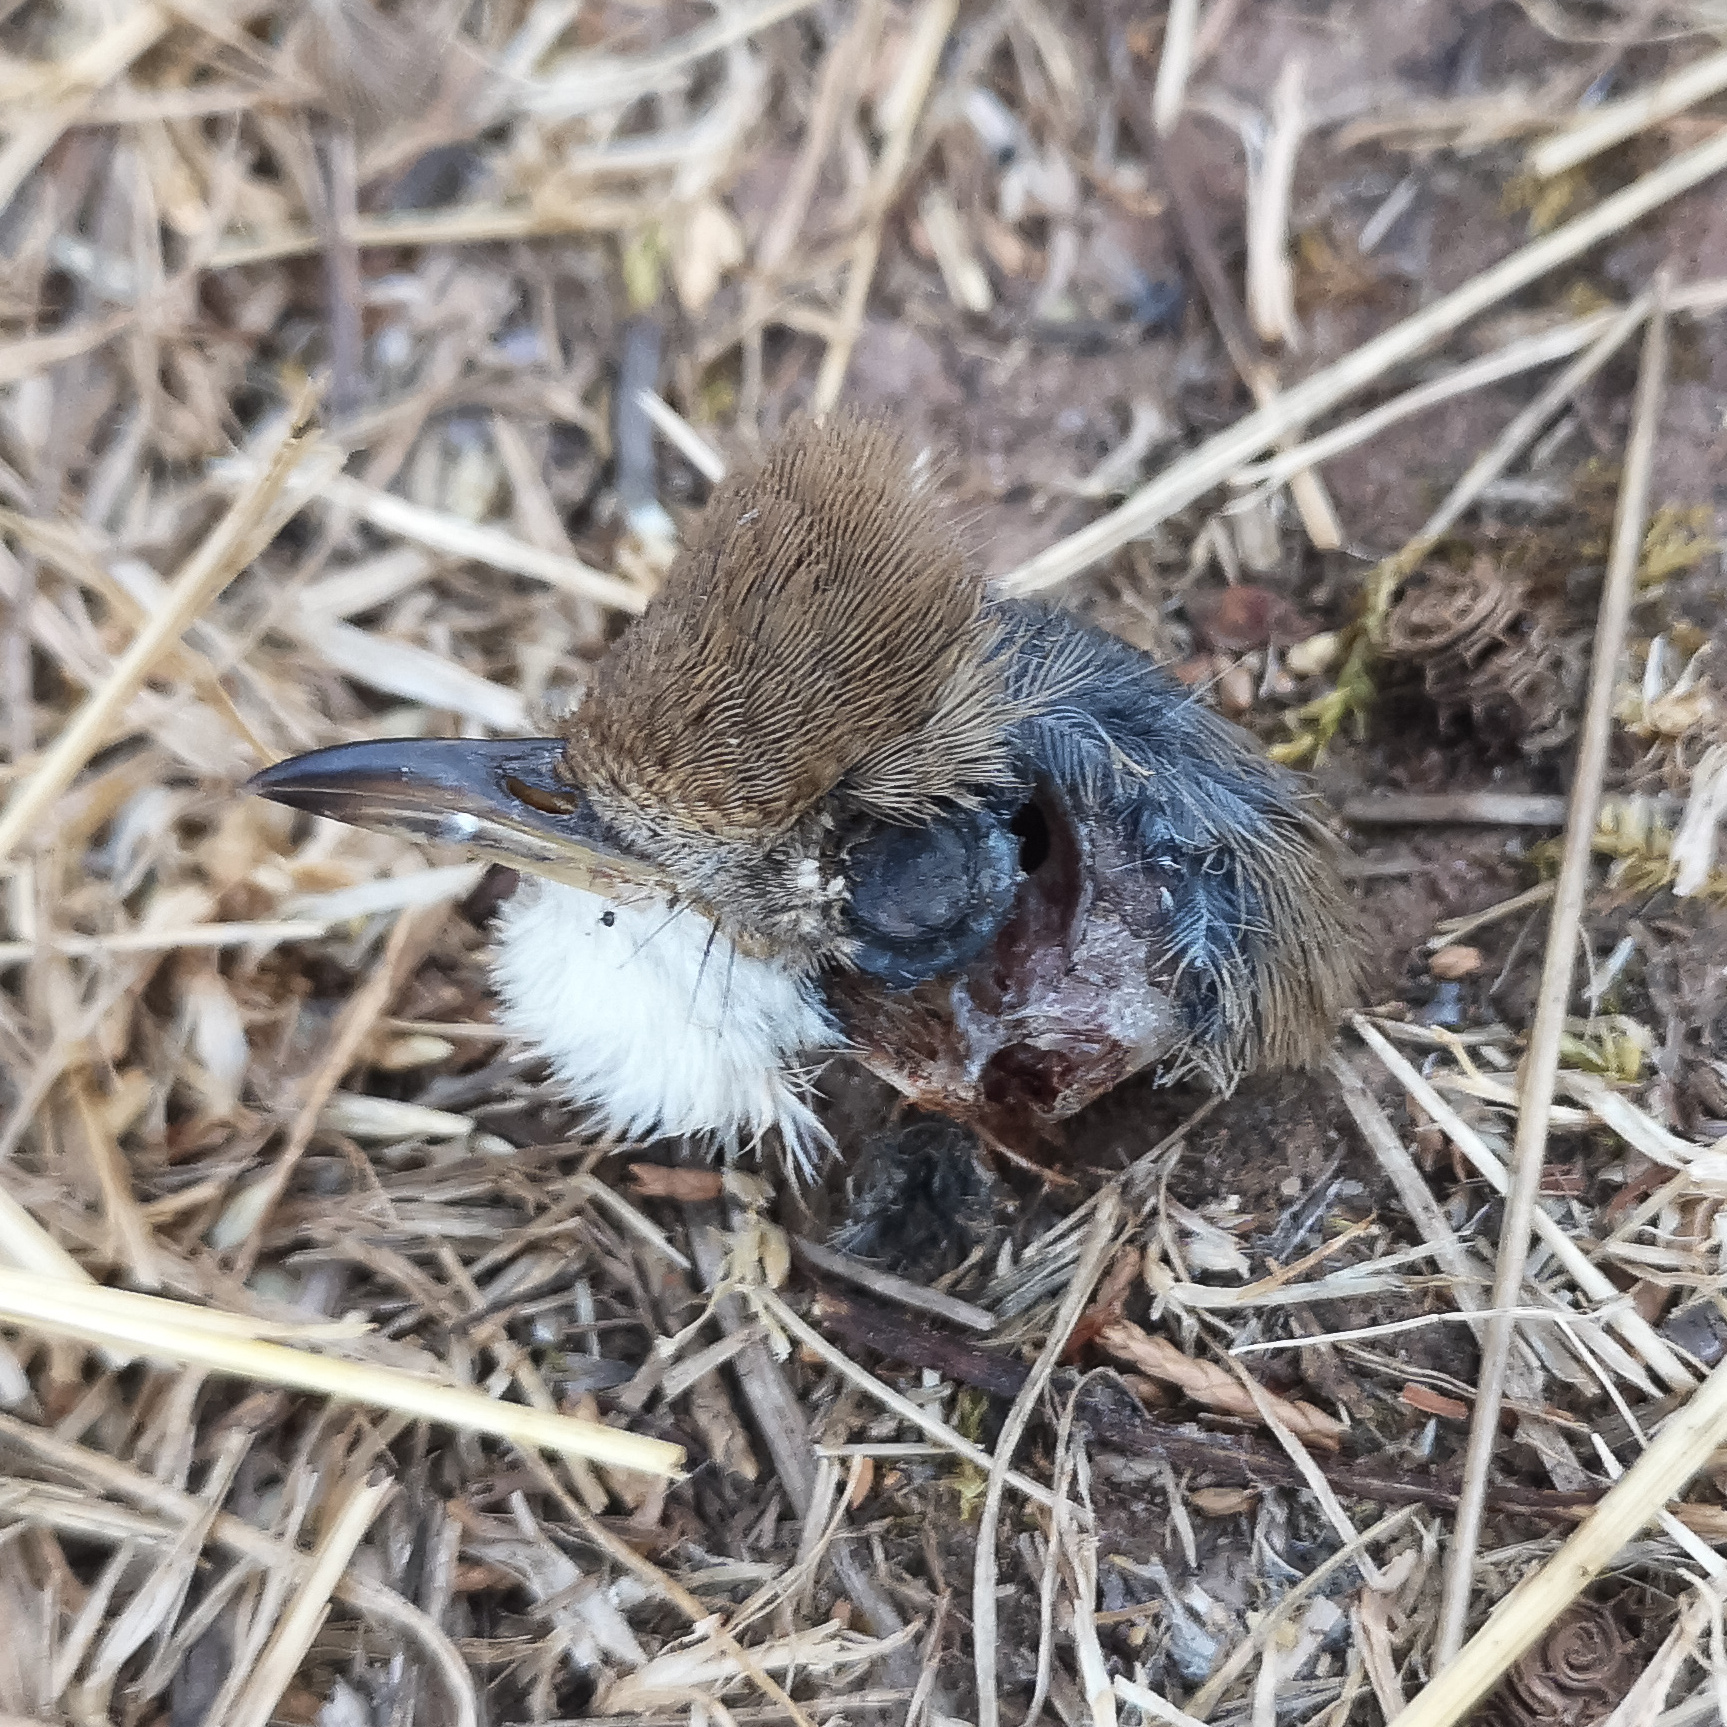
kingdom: Animalia
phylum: Chordata
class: Aves
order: Passeriformes
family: Sylviidae
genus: Sylvia
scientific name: Sylvia communis
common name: Common whitethroat
